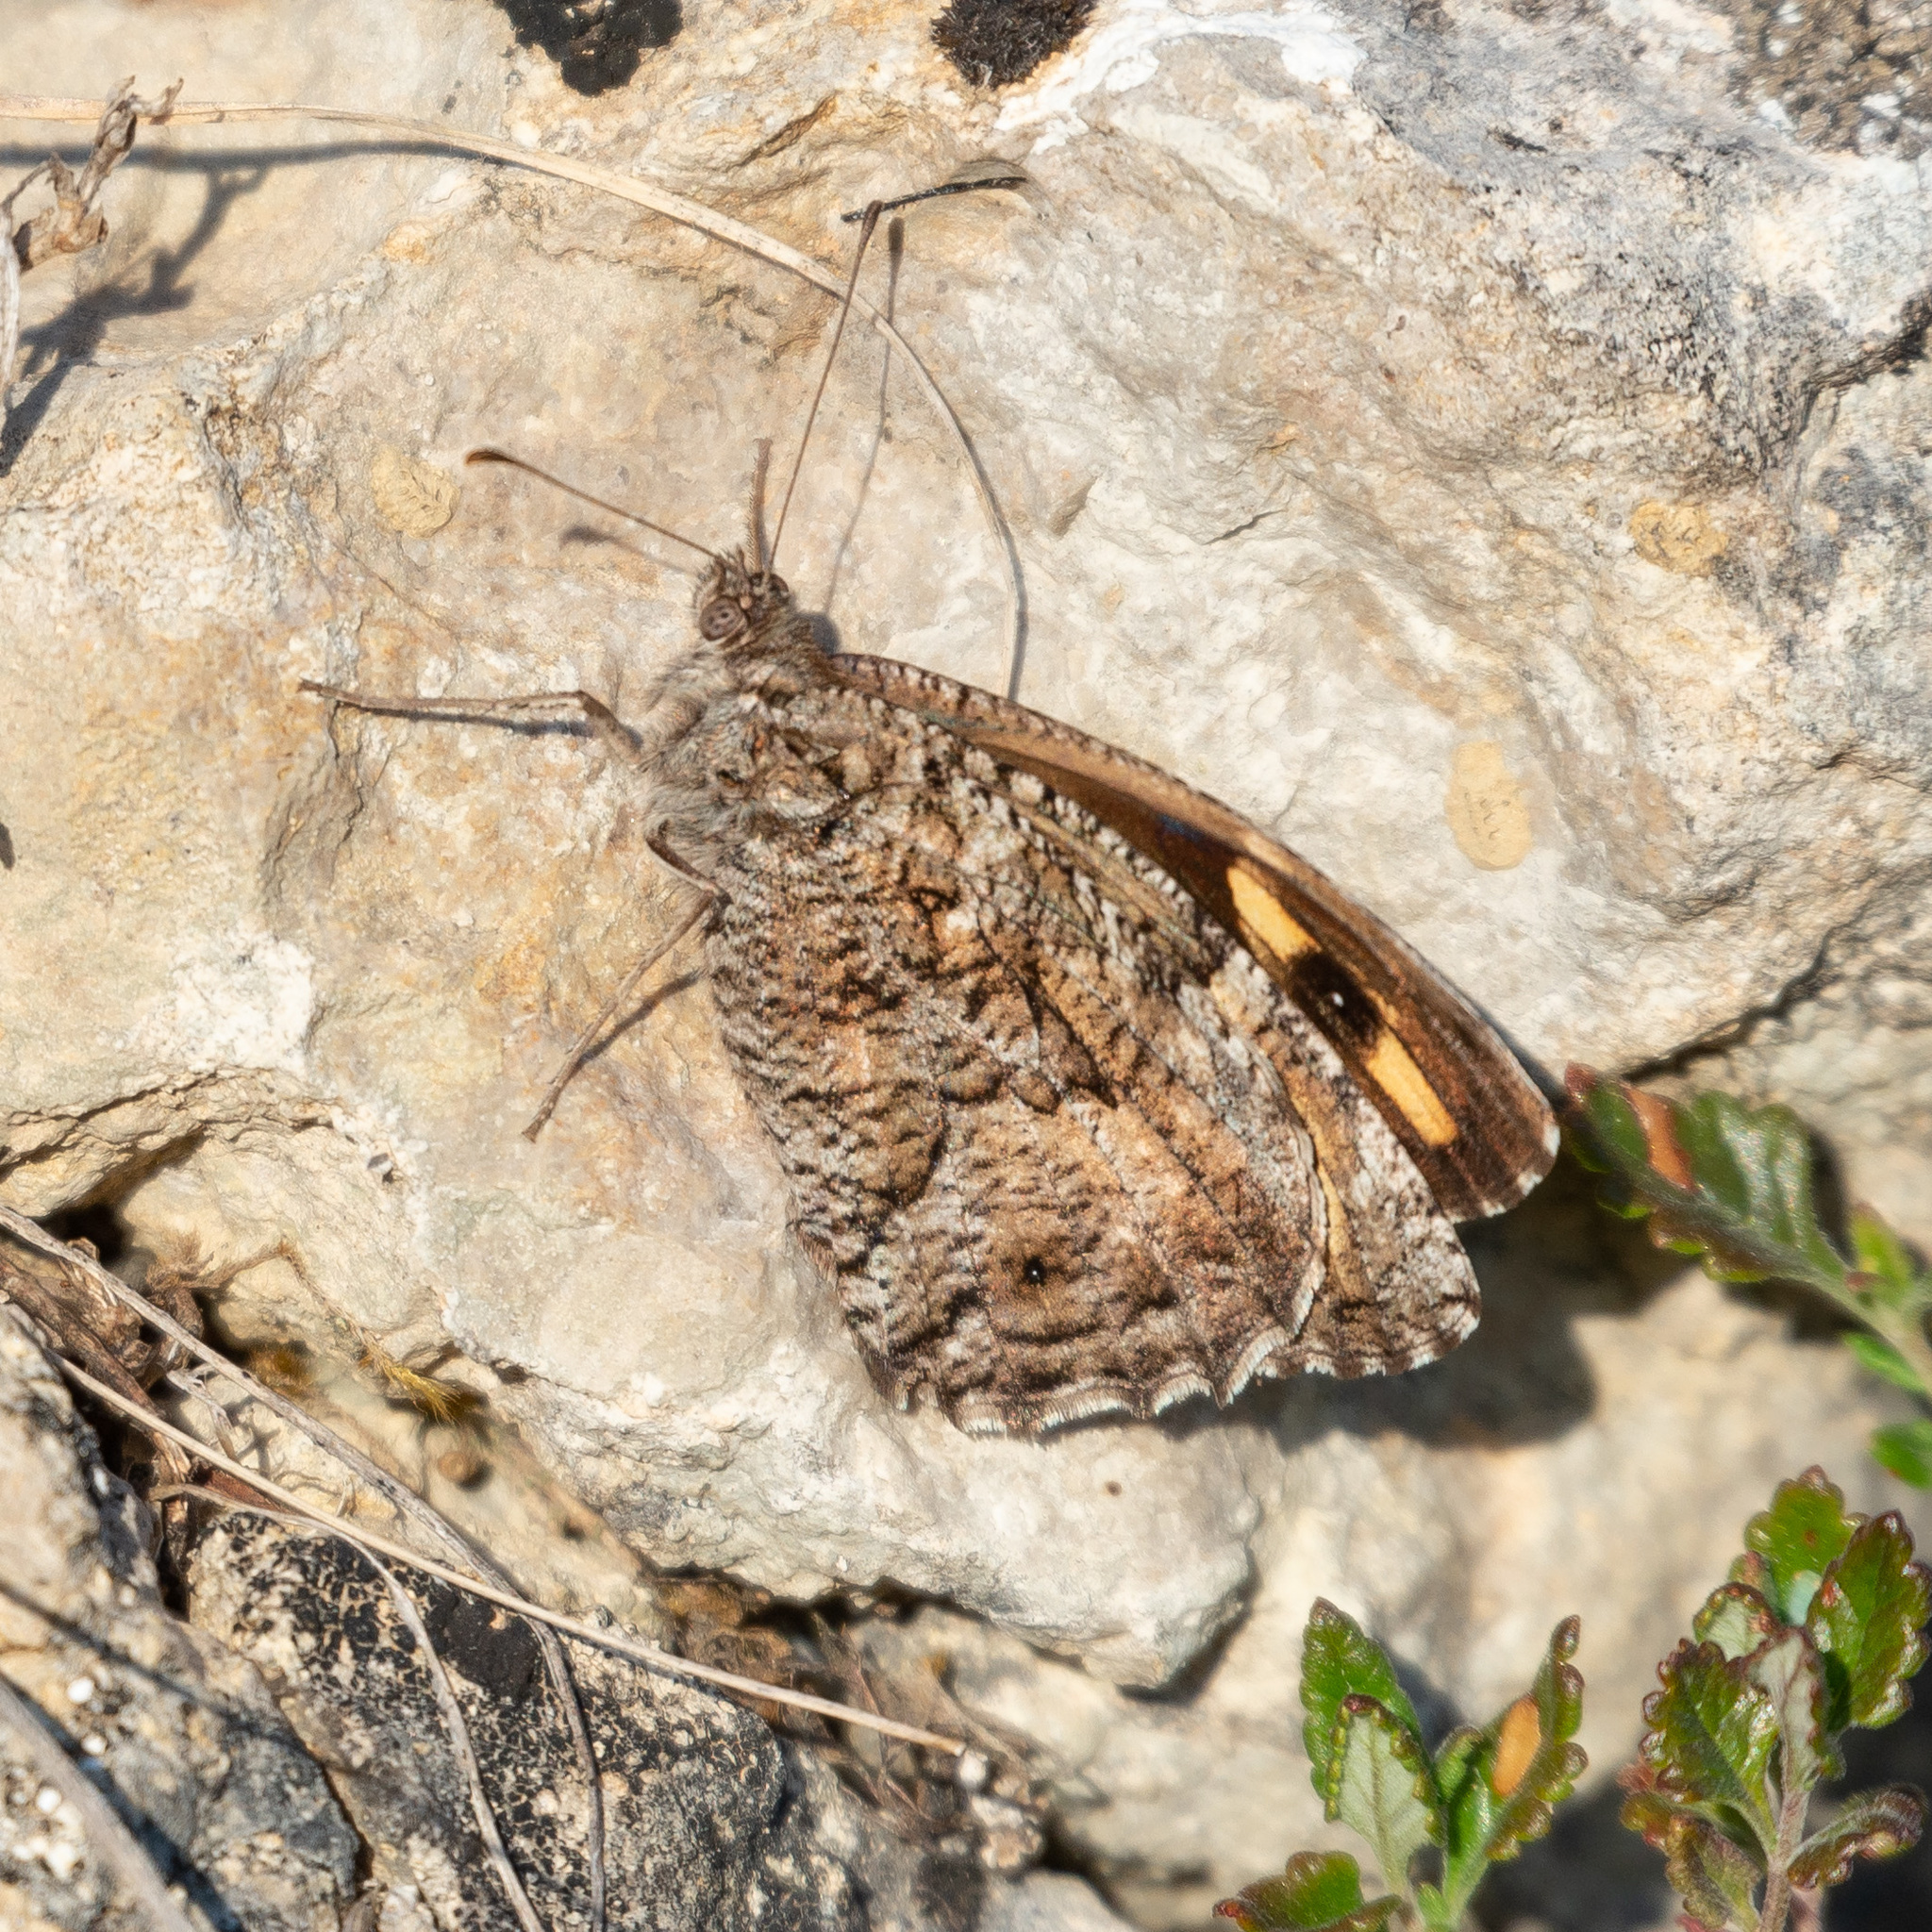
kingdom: Animalia
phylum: Arthropoda
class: Insecta
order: Lepidoptera
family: Nymphalidae
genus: Hipparchia
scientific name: Hipparchia semele
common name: Grayling
